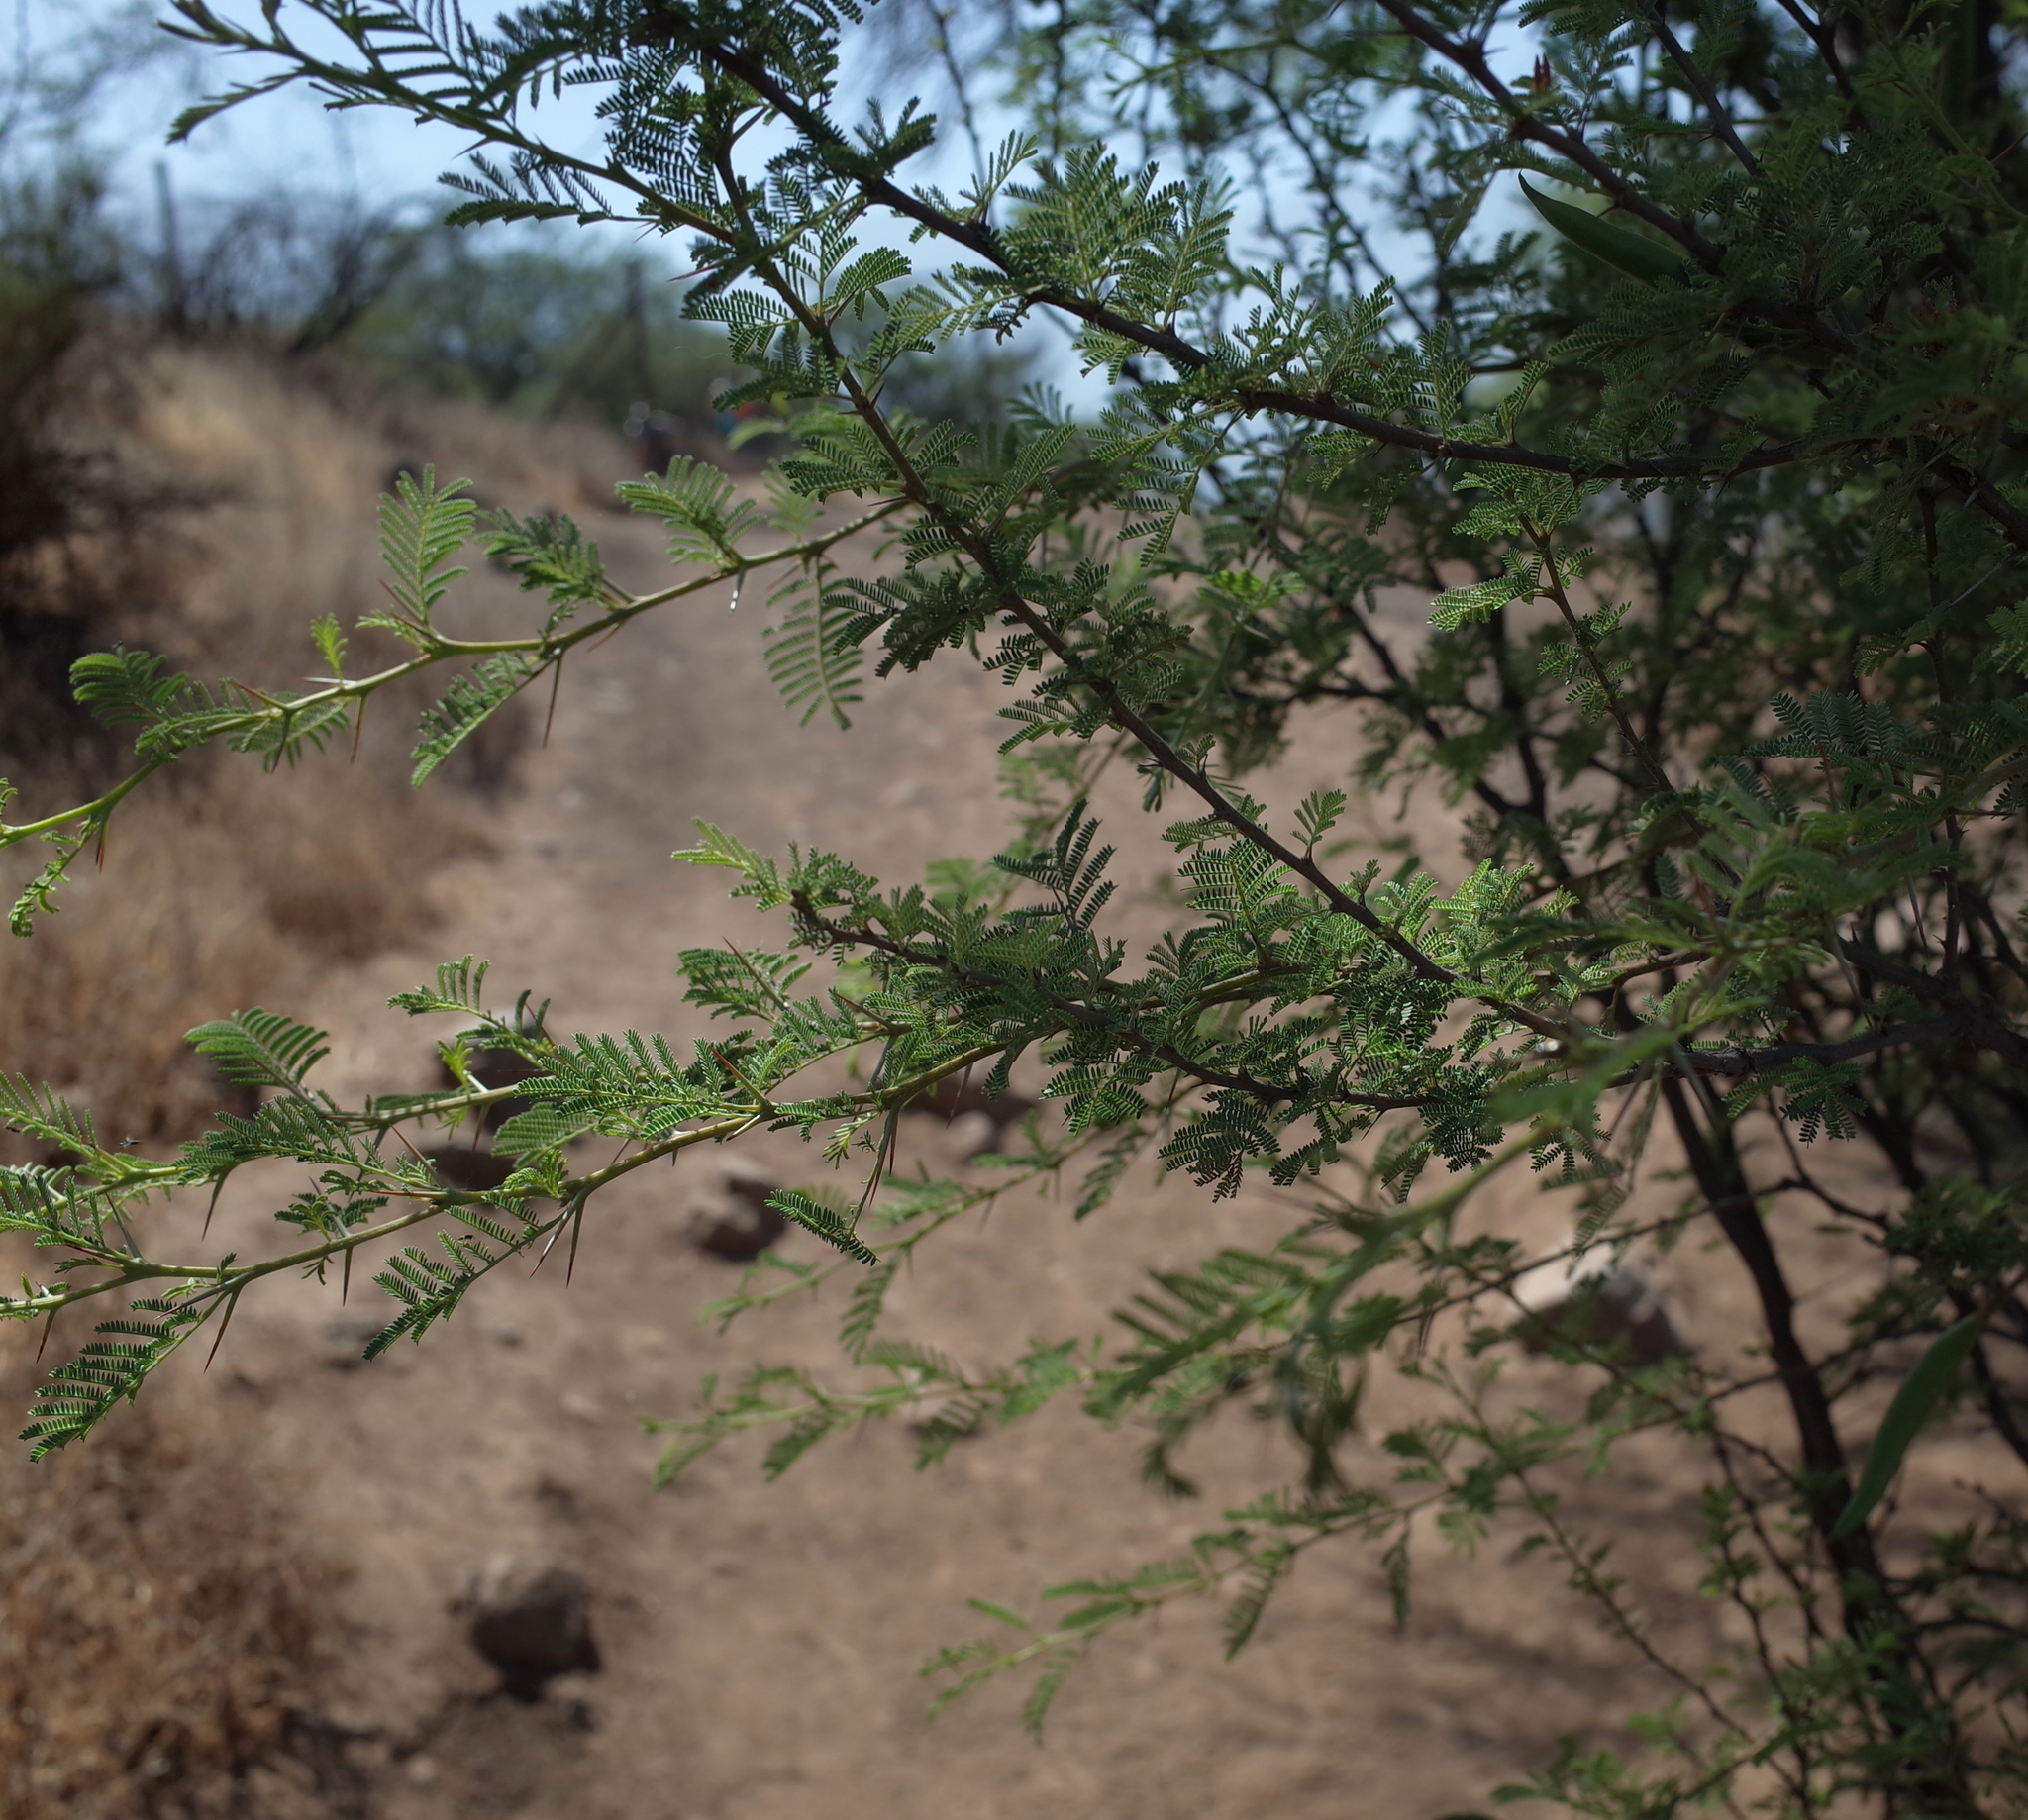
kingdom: Plantae
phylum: Tracheophyta
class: Magnoliopsida
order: Fabales
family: Fabaceae
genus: Vachellia
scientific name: Vachellia caven
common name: Roman cassie
